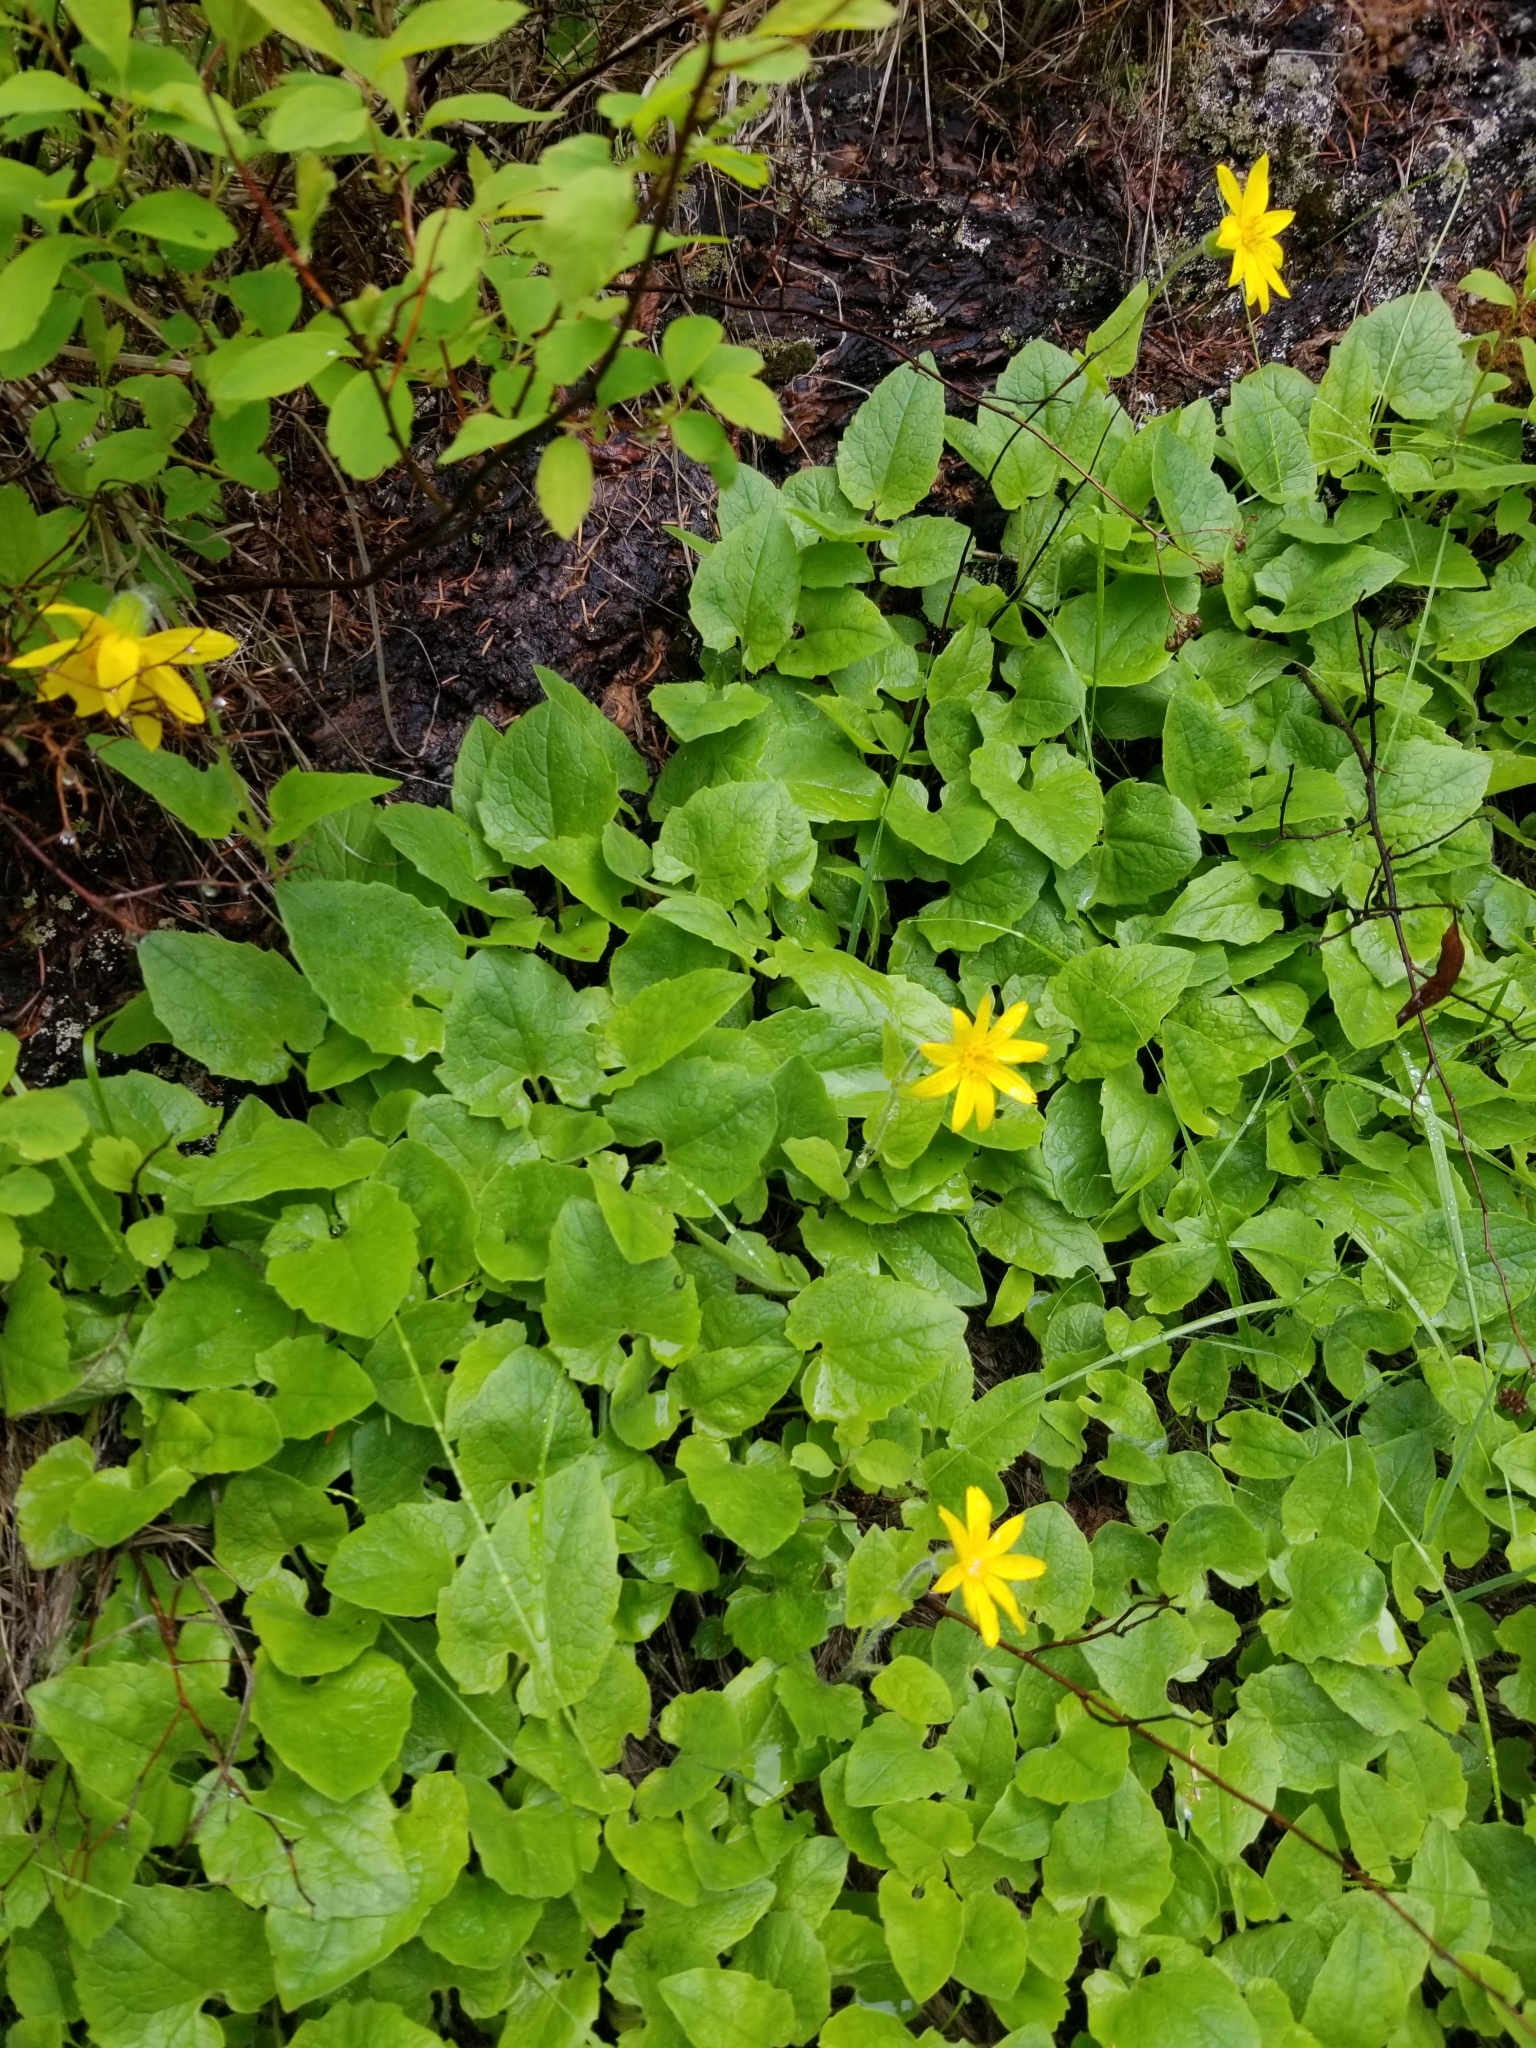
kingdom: Plantae
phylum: Tracheophyta
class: Magnoliopsida
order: Asterales
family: Asteraceae
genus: Arnica
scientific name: Arnica cordifolia
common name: Heart-leaf arnica
